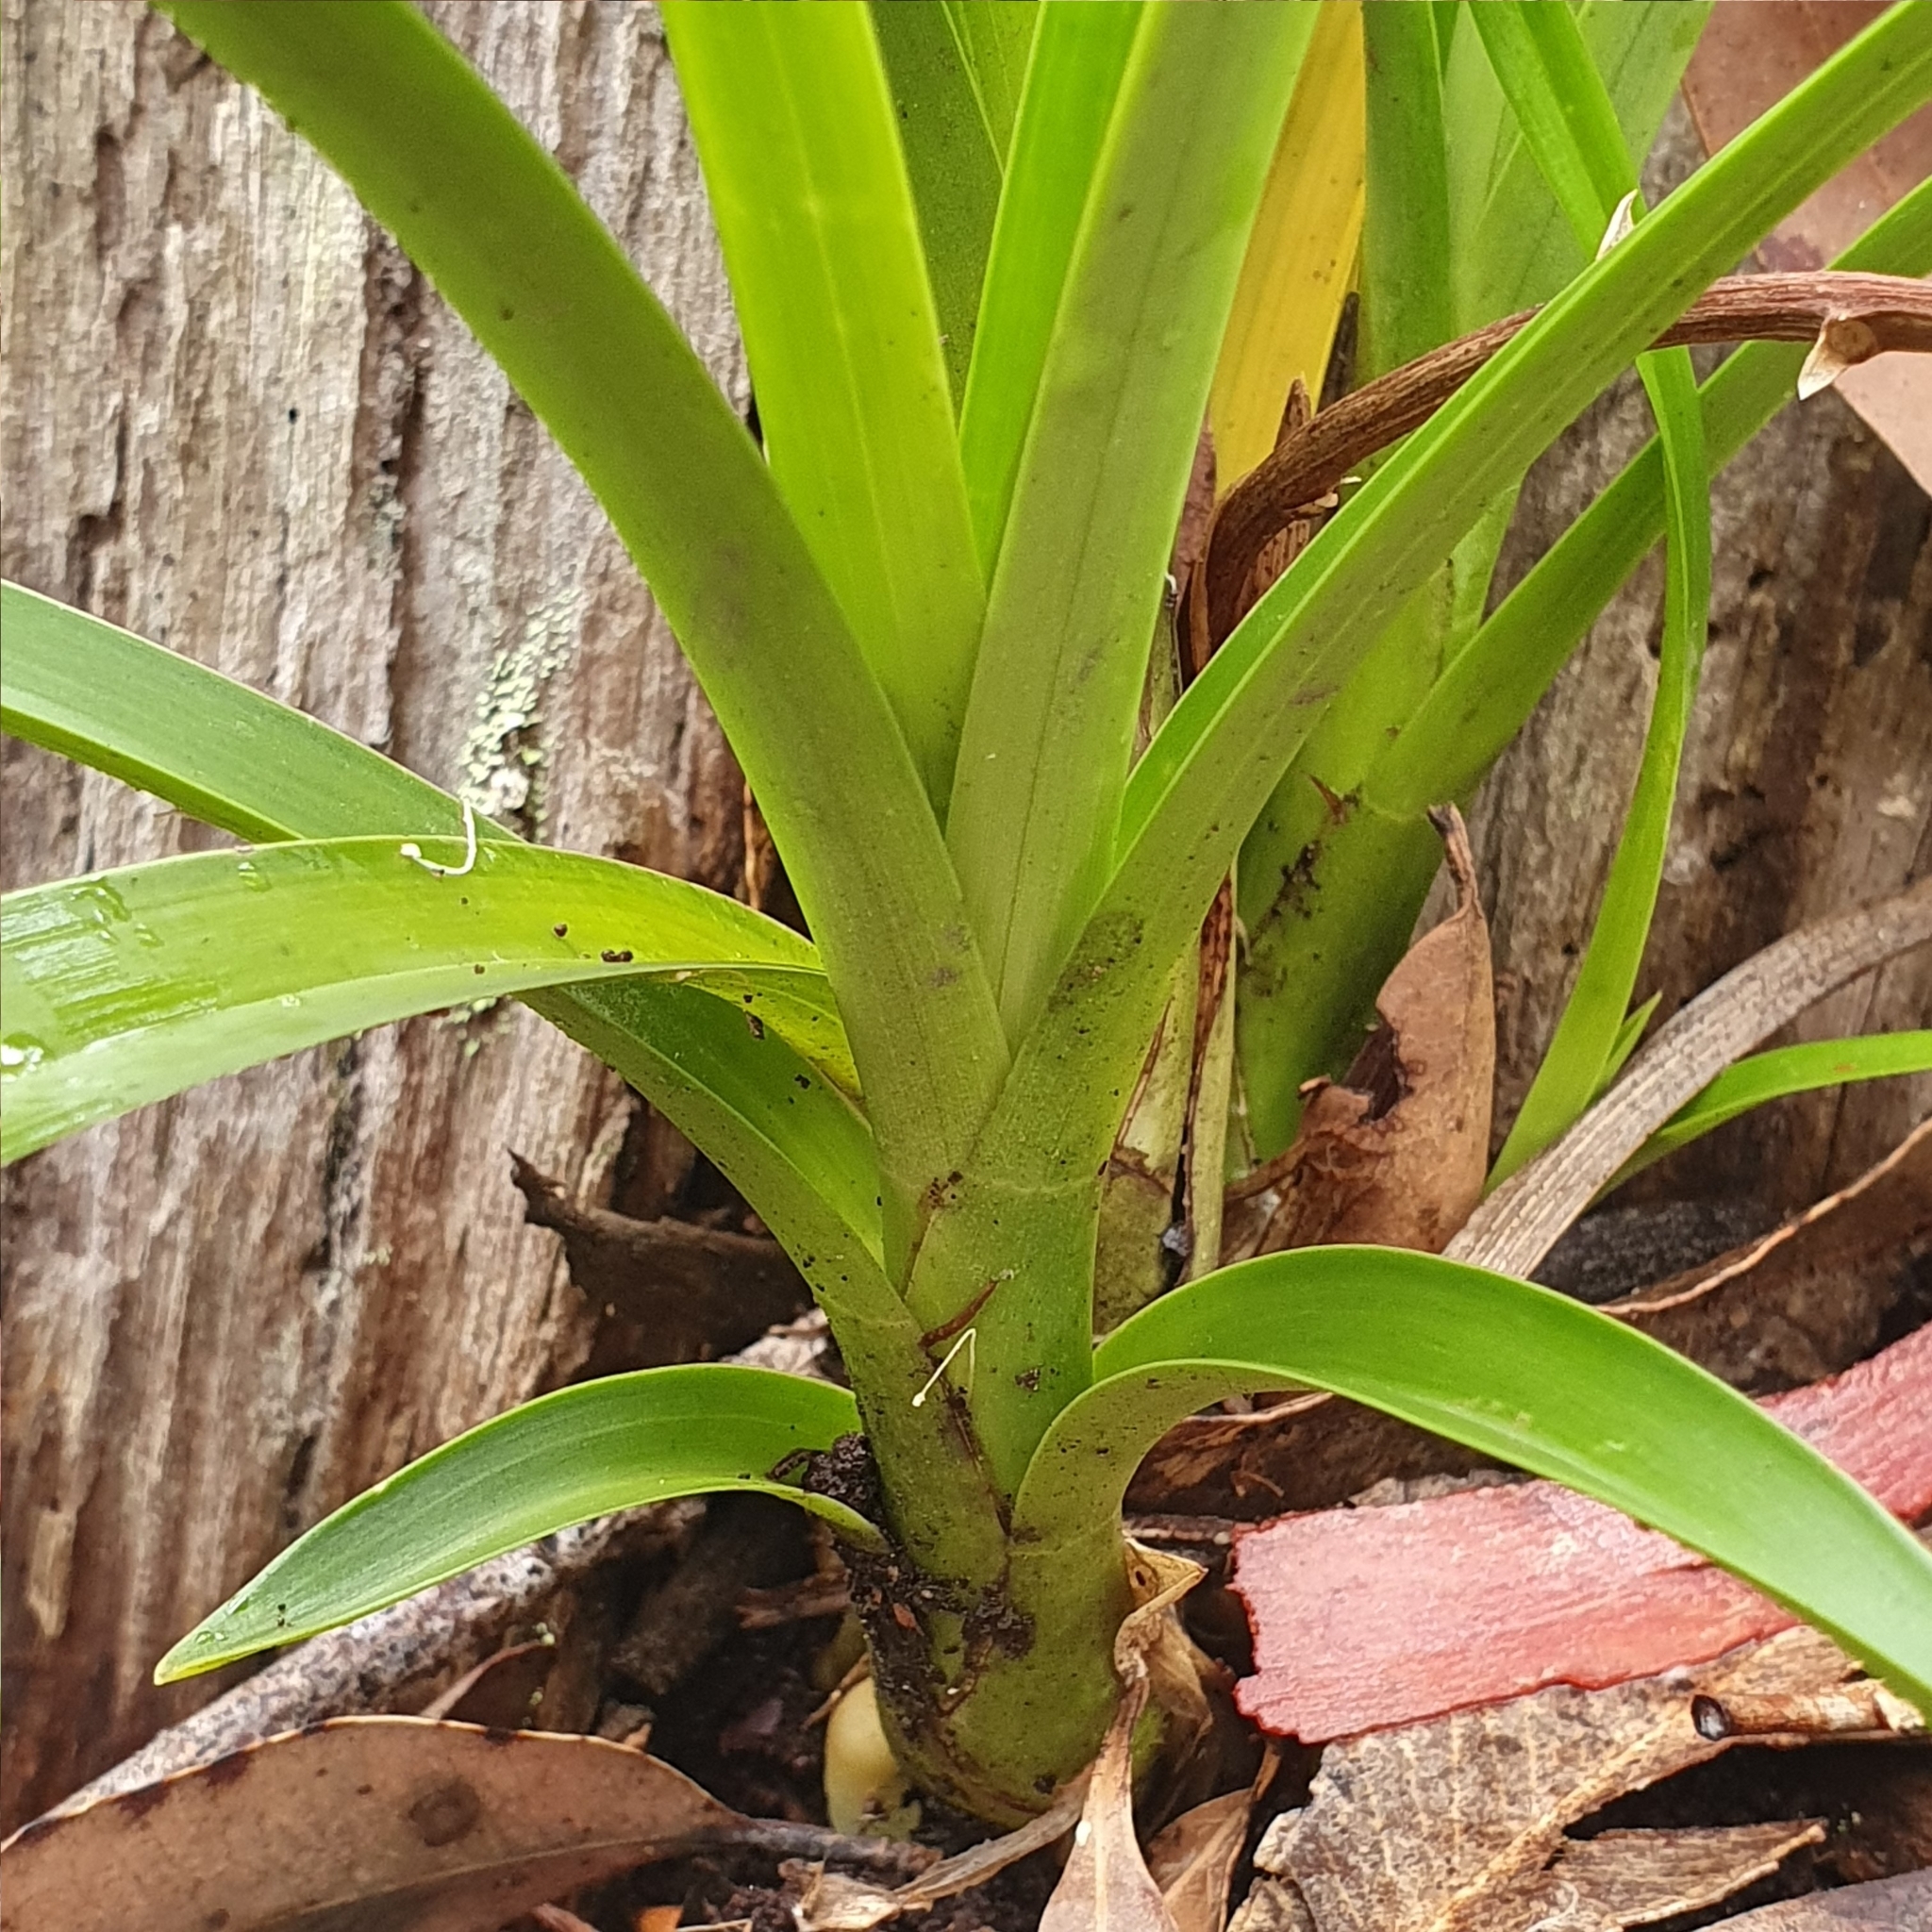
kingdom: Plantae
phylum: Tracheophyta
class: Liliopsida
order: Asparagales
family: Orchidaceae
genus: Cymbidium
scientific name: Cymbidium suave
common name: Snake orchid
